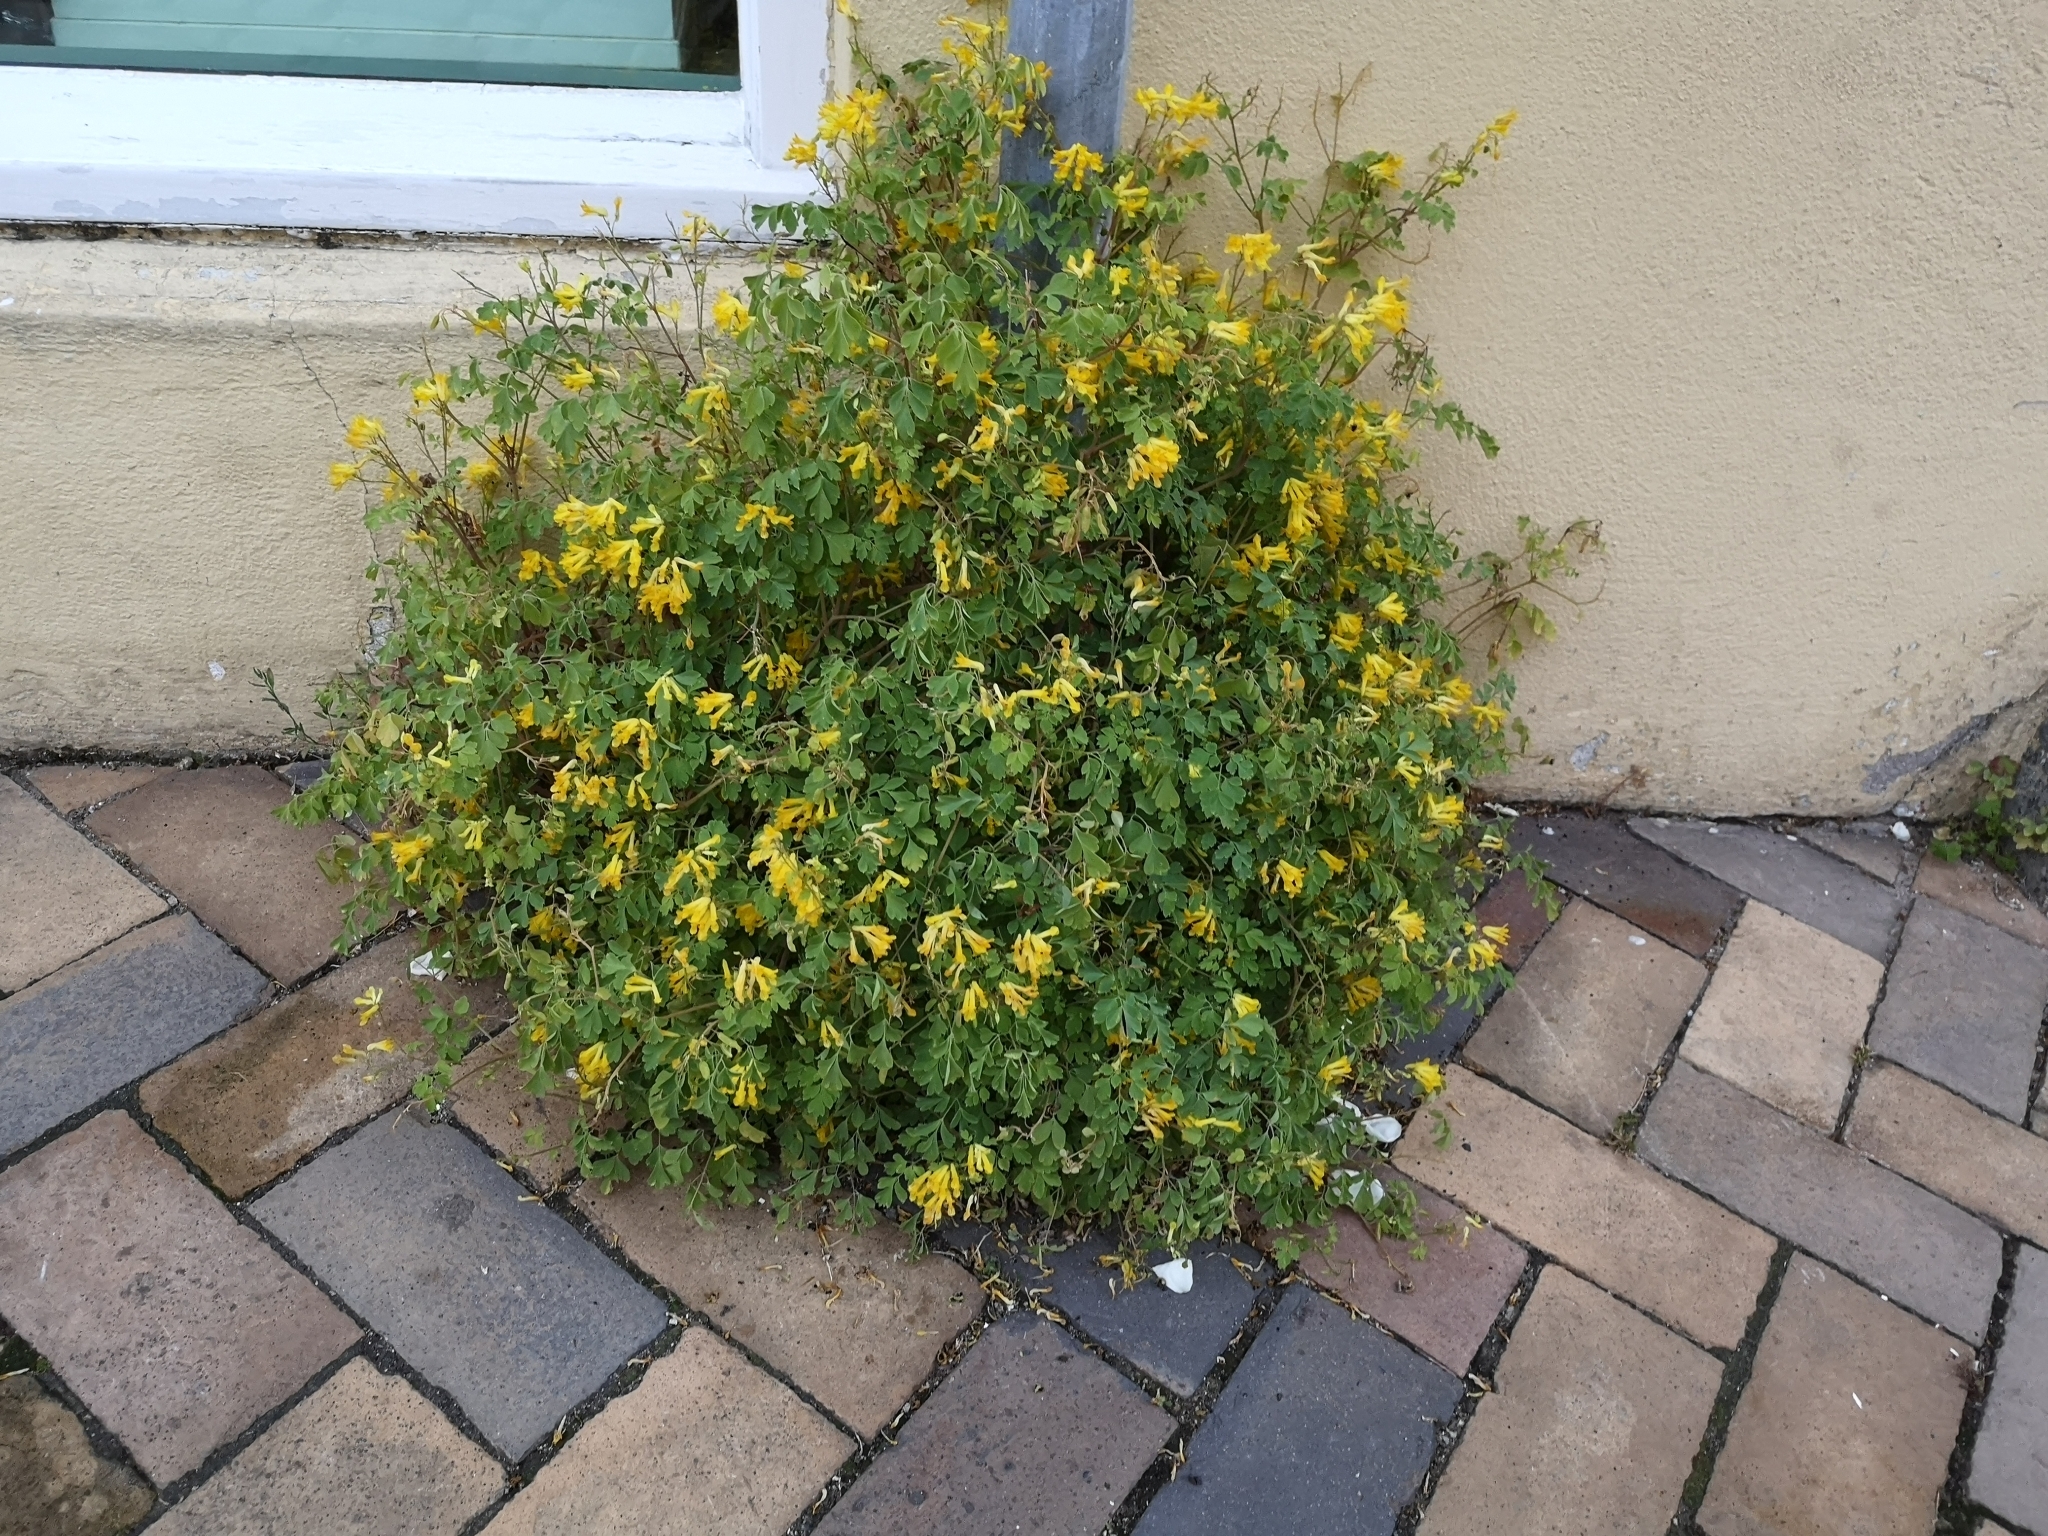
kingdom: Plantae
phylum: Tracheophyta
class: Magnoliopsida
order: Ranunculales
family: Papaveraceae
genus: Pseudofumaria
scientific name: Pseudofumaria lutea
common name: Yellow corydalis
